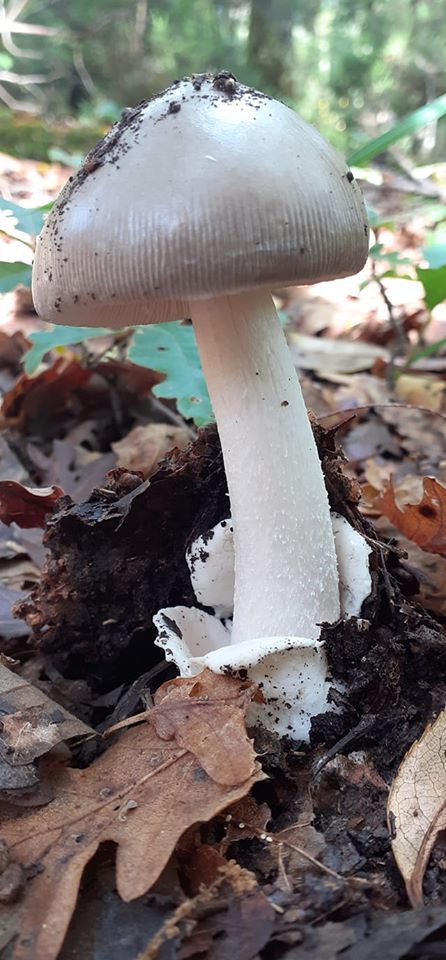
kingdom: Fungi
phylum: Basidiomycota
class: Agaricomycetes
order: Agaricales
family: Amanitaceae
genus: Amanita
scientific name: Amanita mairei
